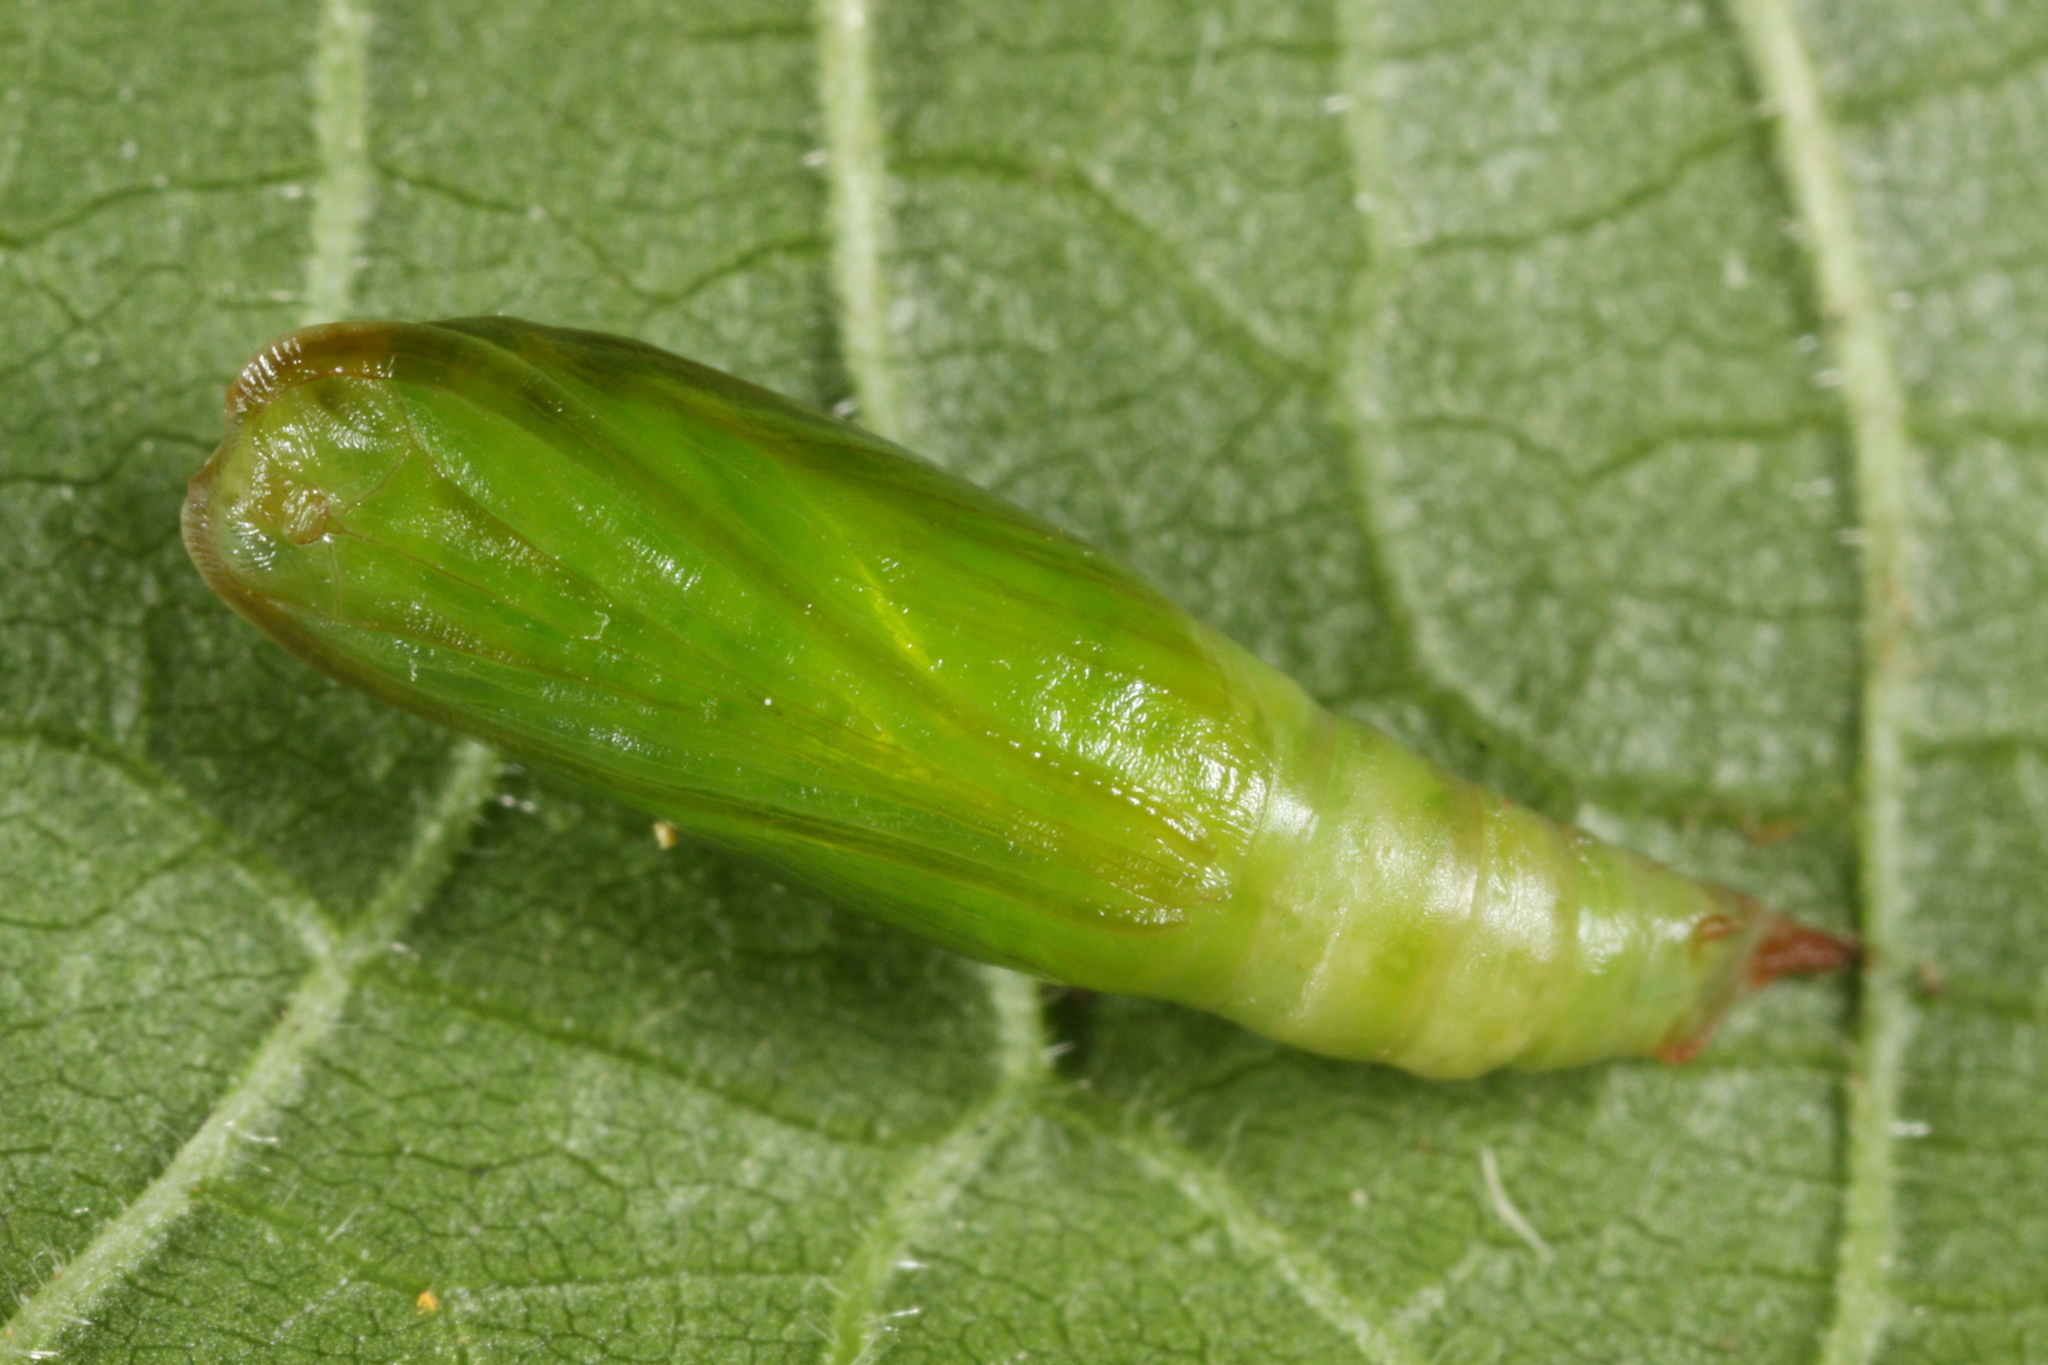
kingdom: Animalia
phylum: Arthropoda
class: Insecta
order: Lepidoptera
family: Geometridae
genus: Jodis
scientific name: Jodis lactearia
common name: Little emerald
